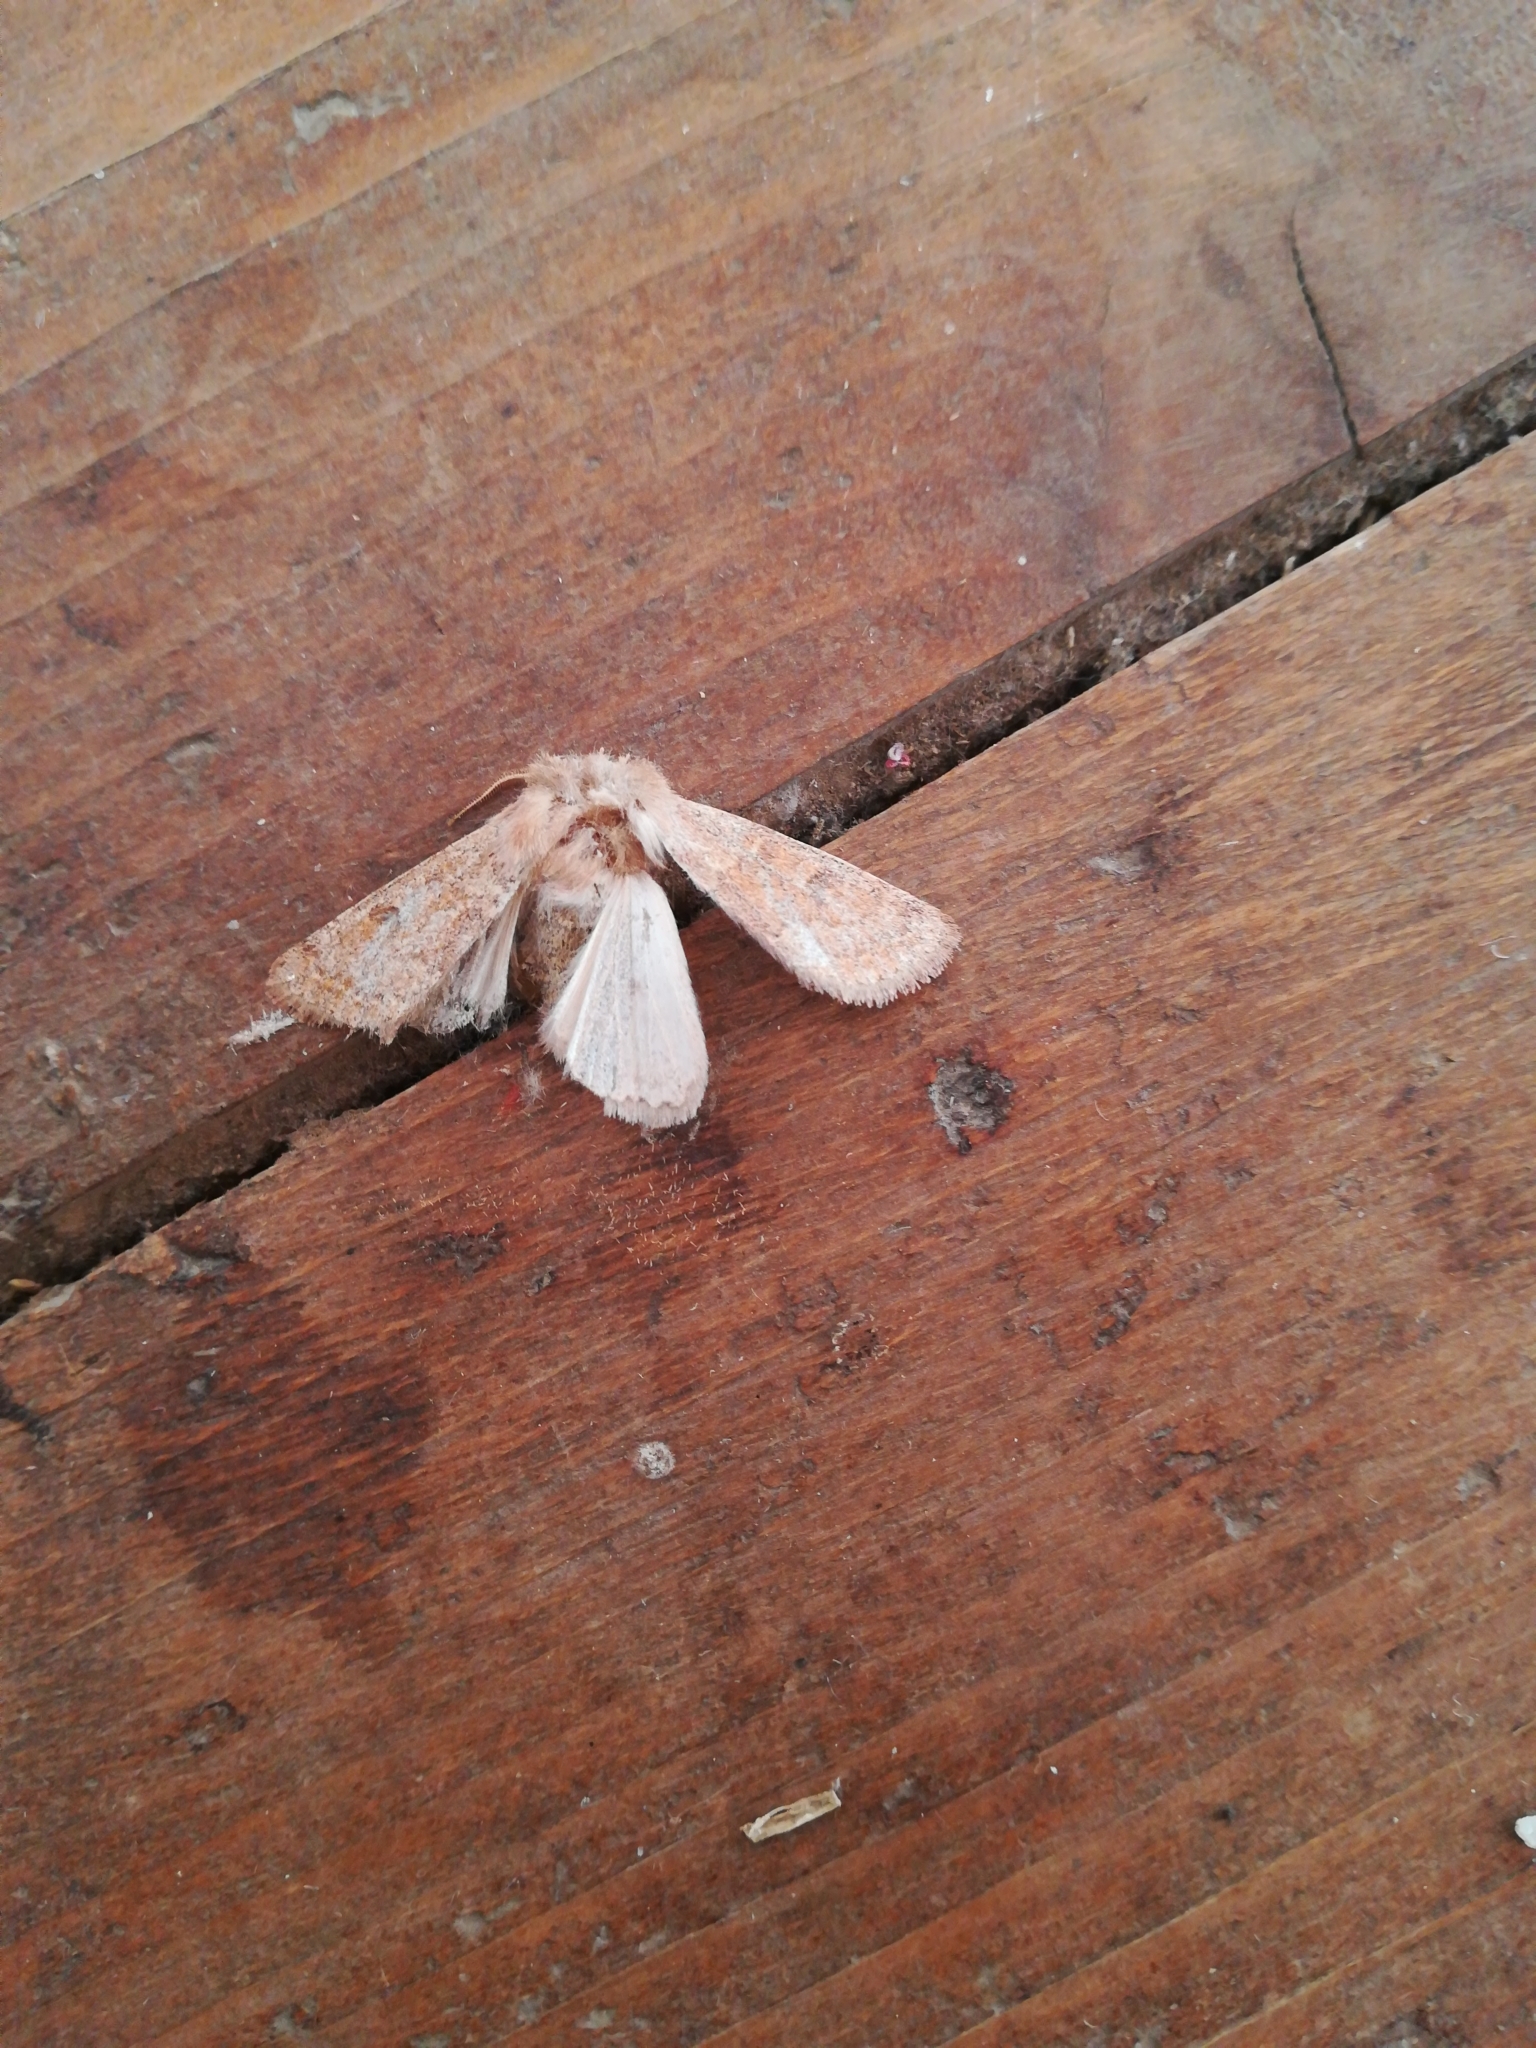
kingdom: Animalia
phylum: Arthropoda
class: Insecta
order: Lepidoptera
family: Noctuidae
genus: Orthosia
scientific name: Orthosia miniosa
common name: Blossom underwing
